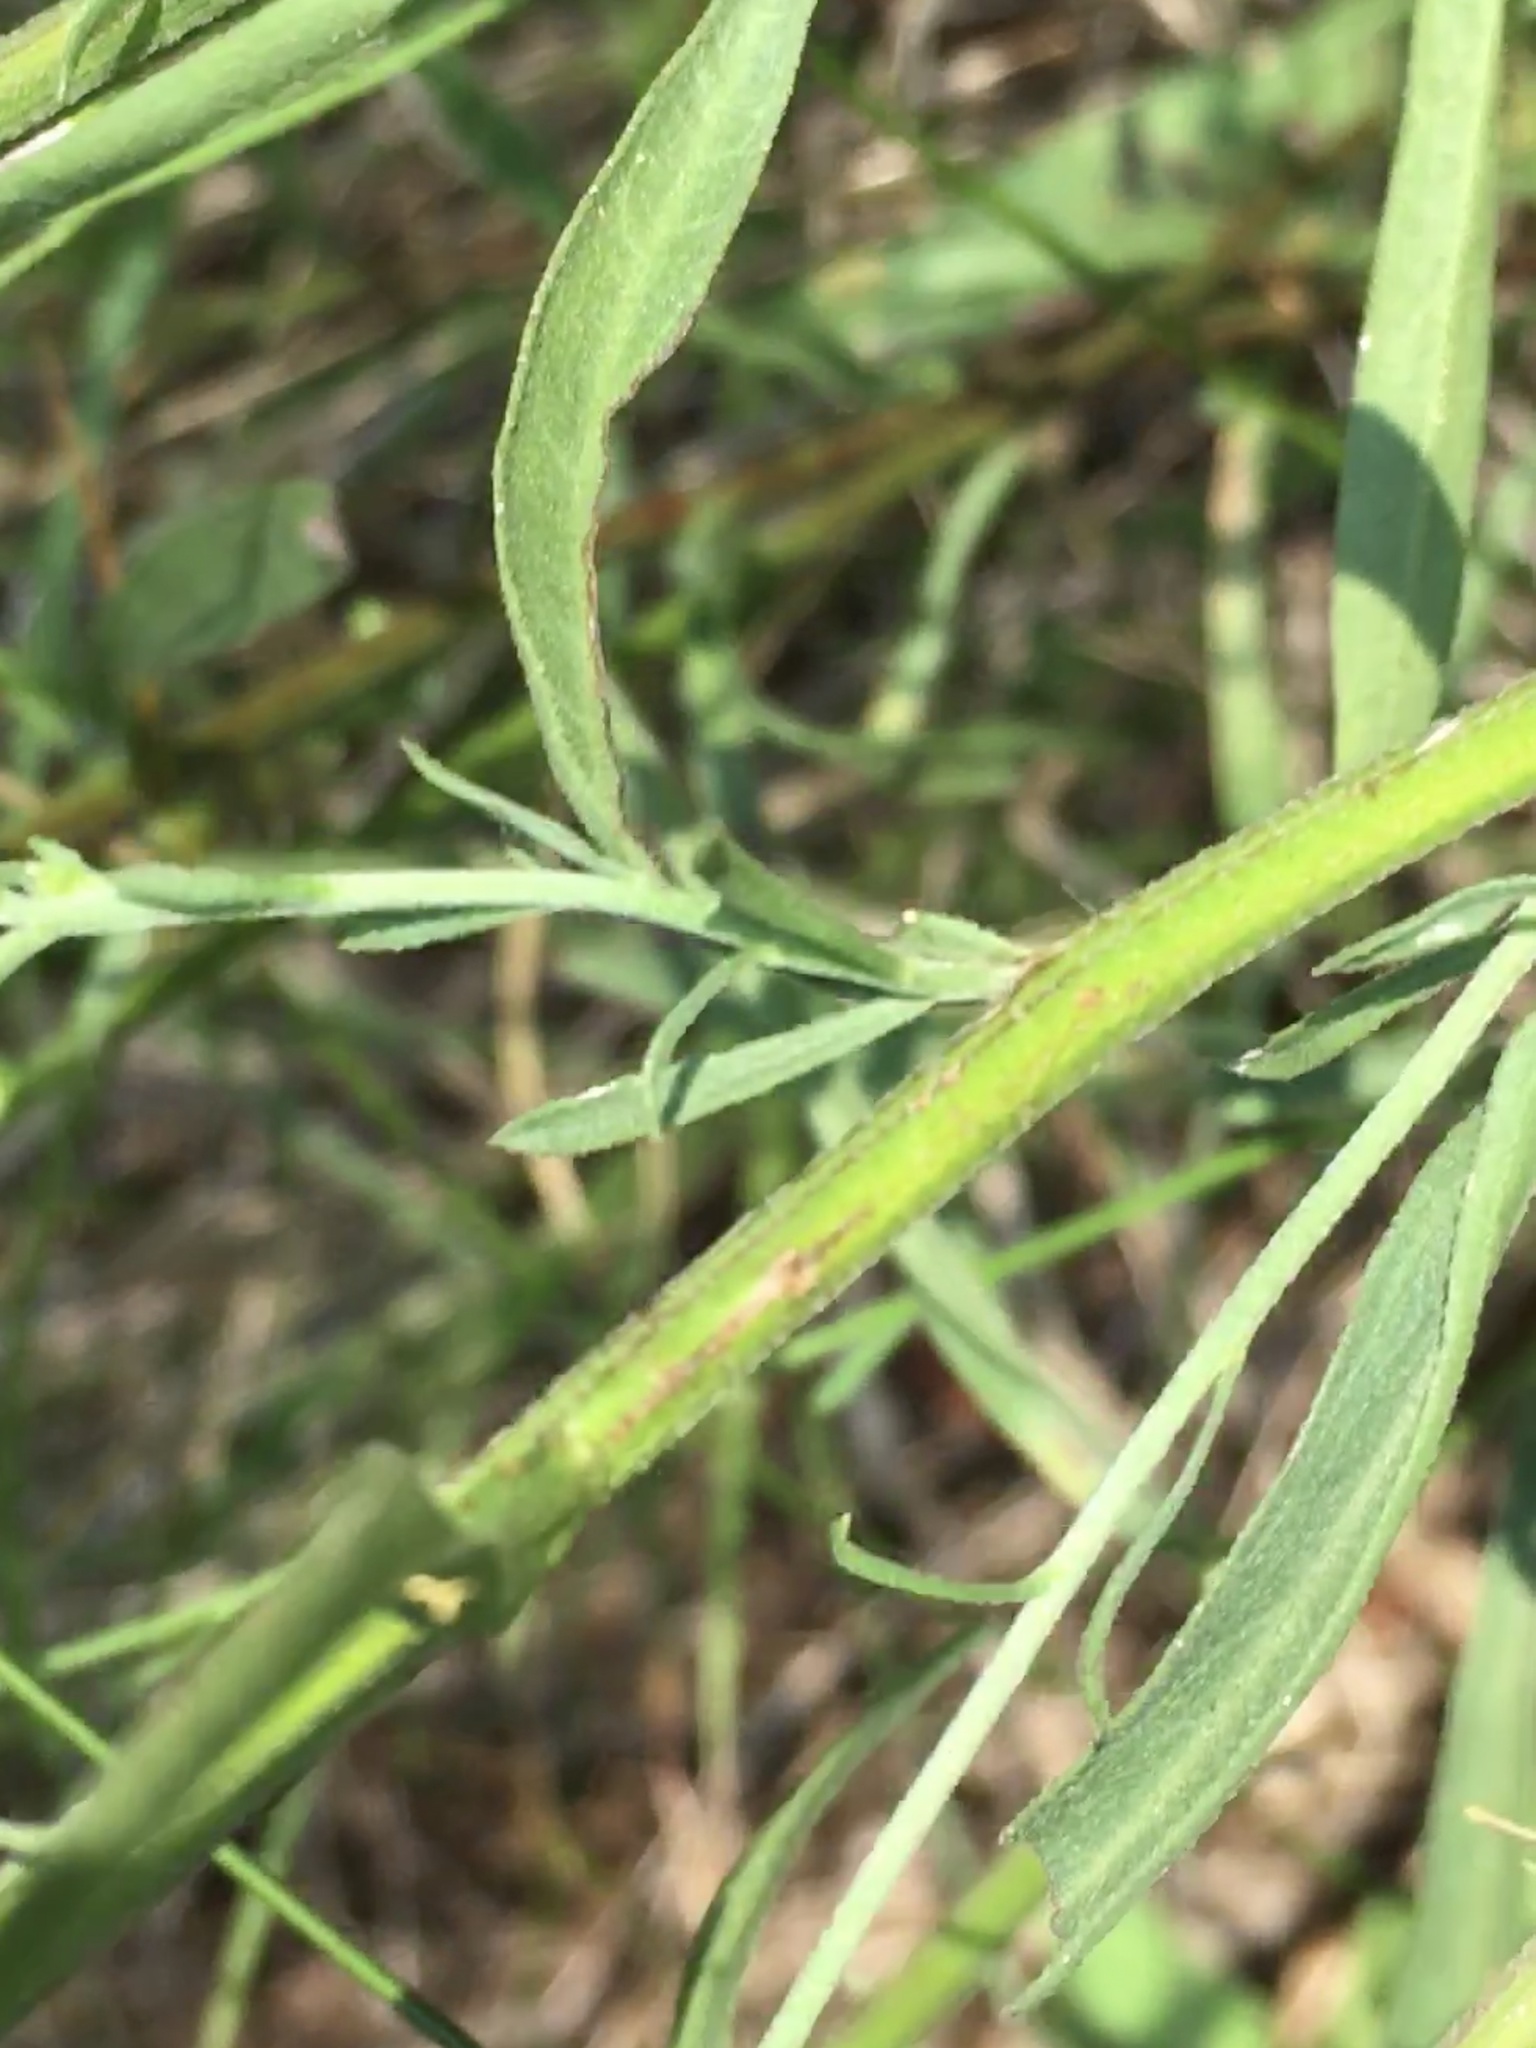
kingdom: Plantae
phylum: Tracheophyta
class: Magnoliopsida
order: Asterales
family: Asteraceae
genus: Erigeron
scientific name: Erigeron strigosus
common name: Common eastern fleabane
